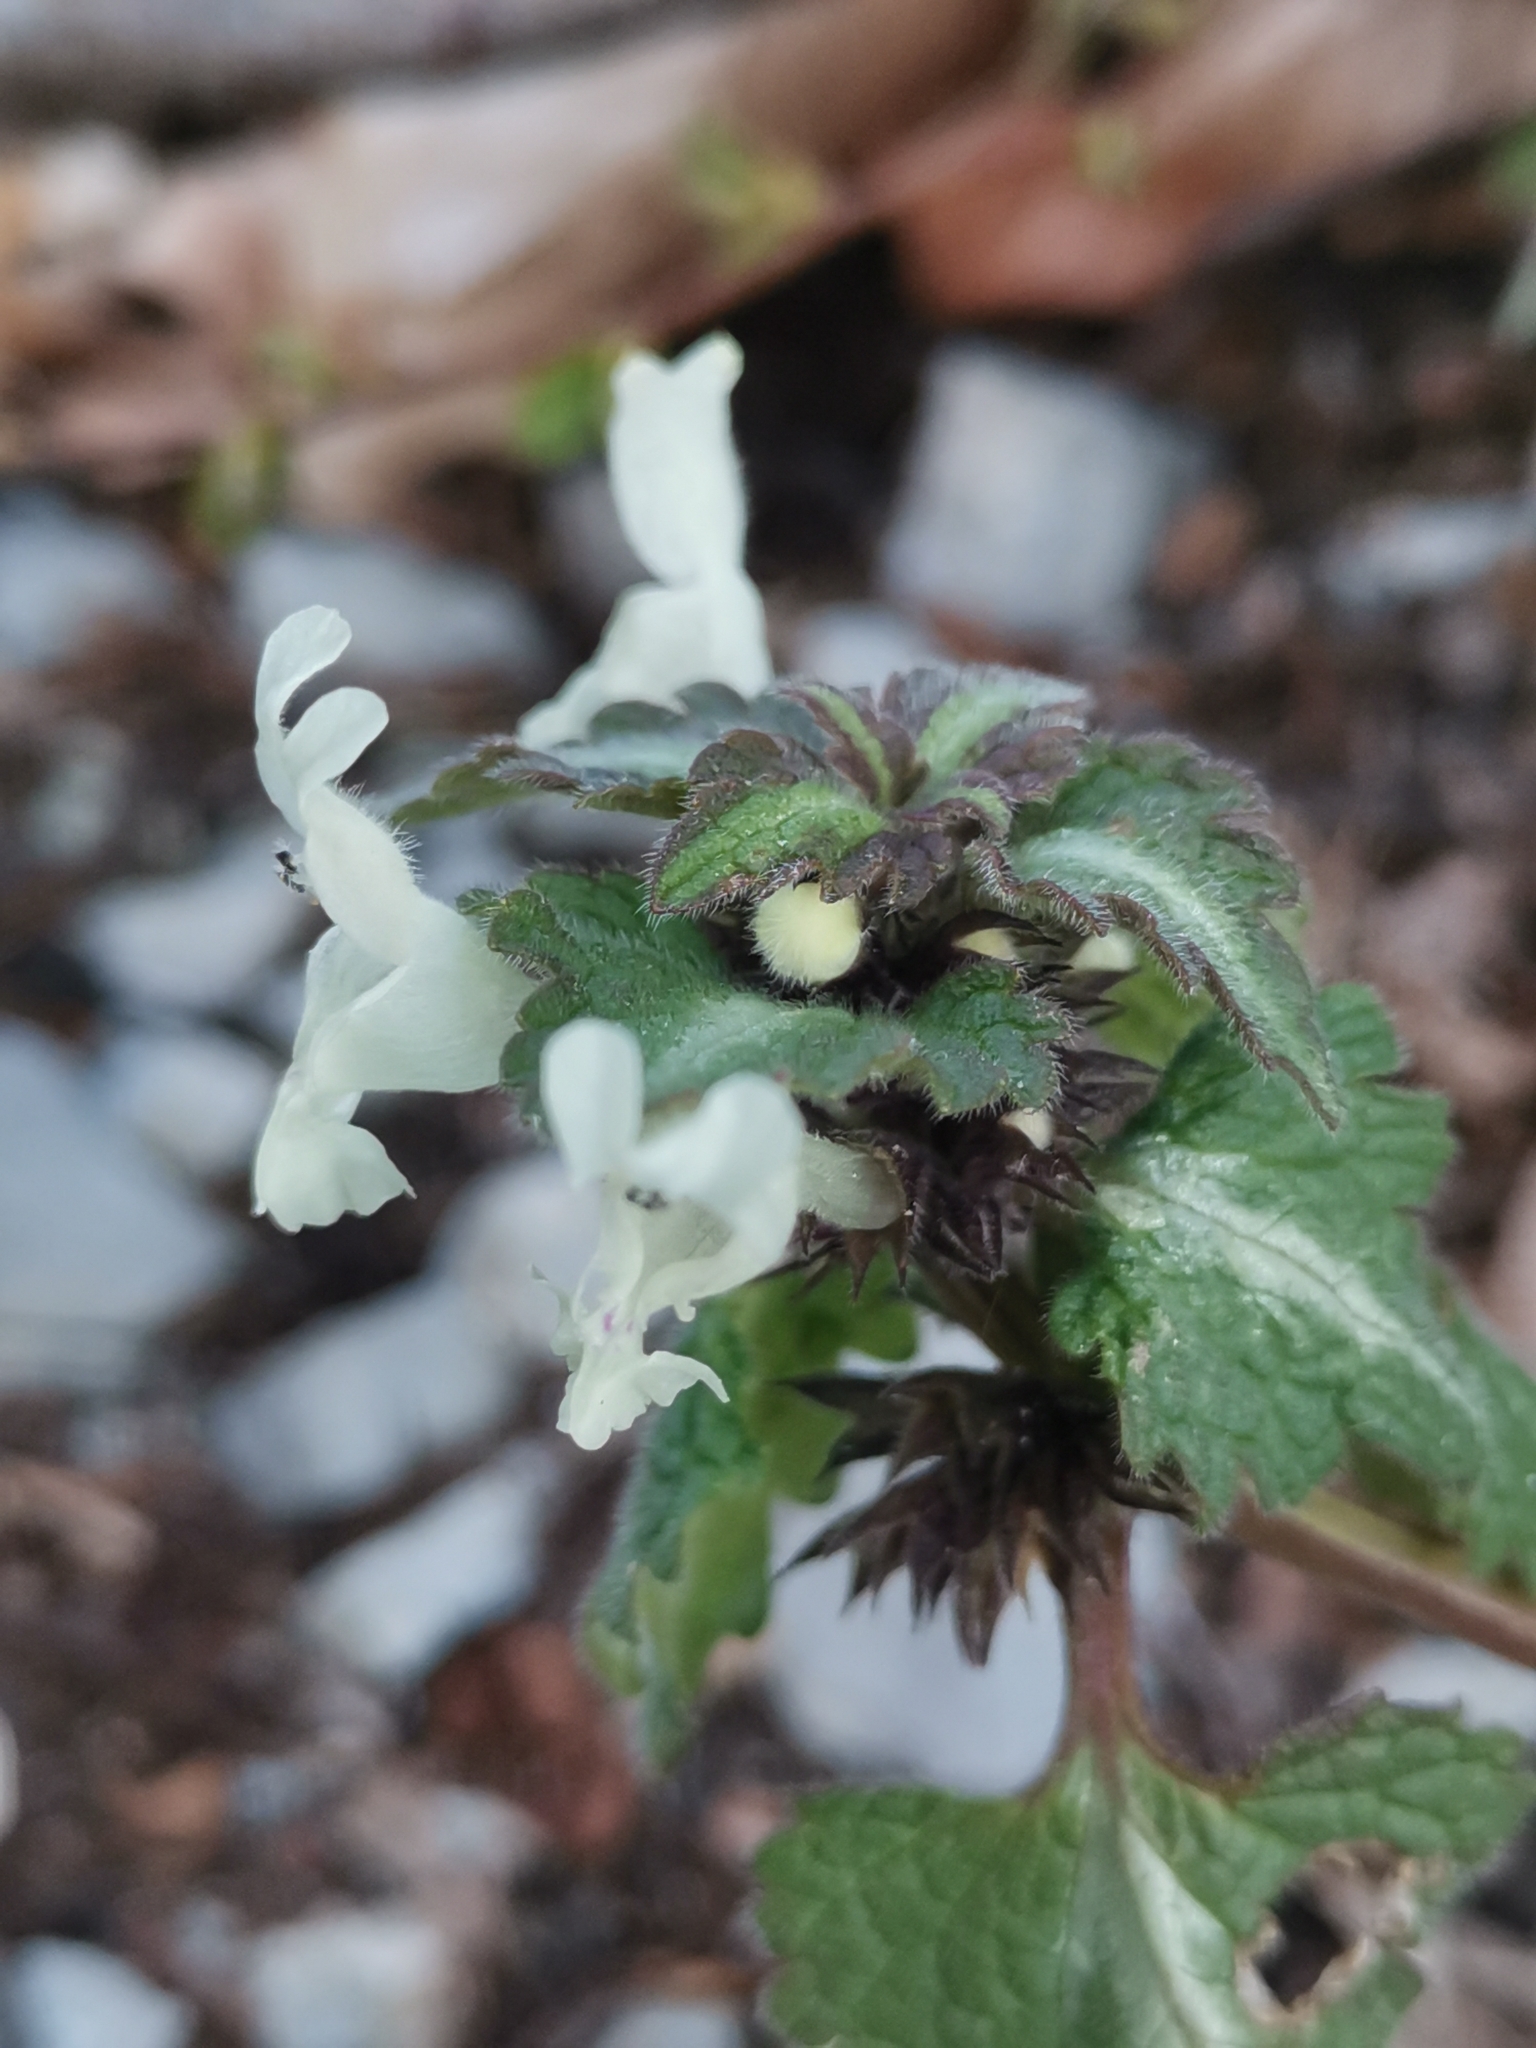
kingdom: Plantae
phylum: Tracheophyta
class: Magnoliopsida
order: Lamiales
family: Lamiaceae
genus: Lamium
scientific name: Lamium bifidum
